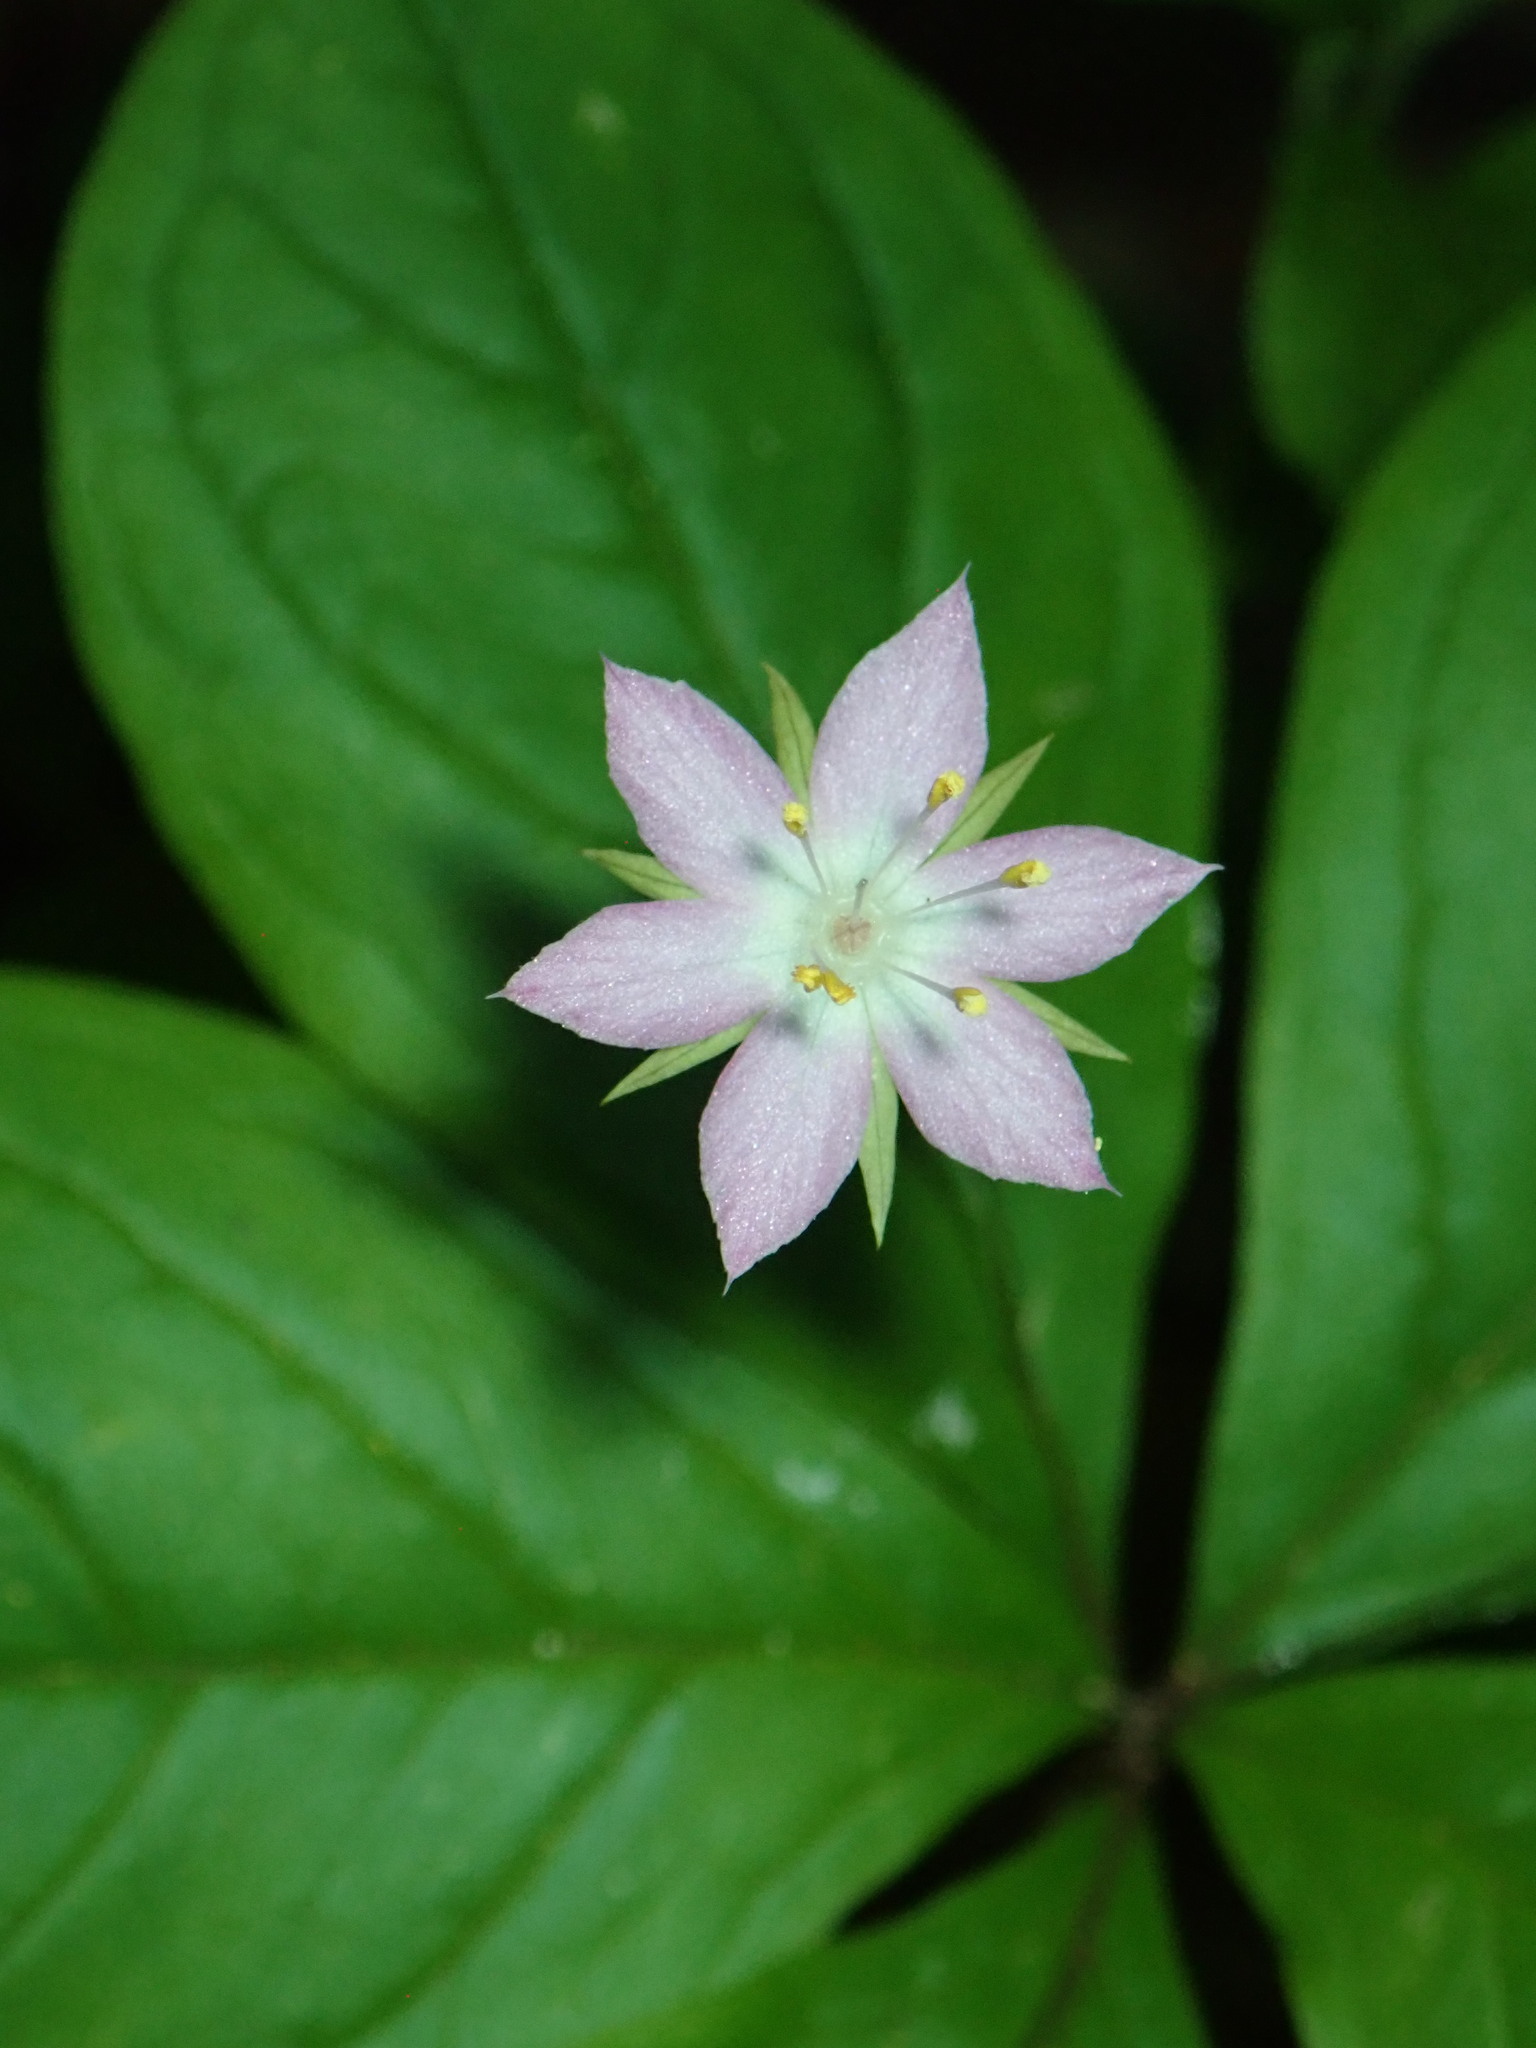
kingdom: Plantae
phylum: Tracheophyta
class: Magnoliopsida
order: Ericales
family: Primulaceae
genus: Lysimachia
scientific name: Lysimachia latifolia
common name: Pacific starflower
